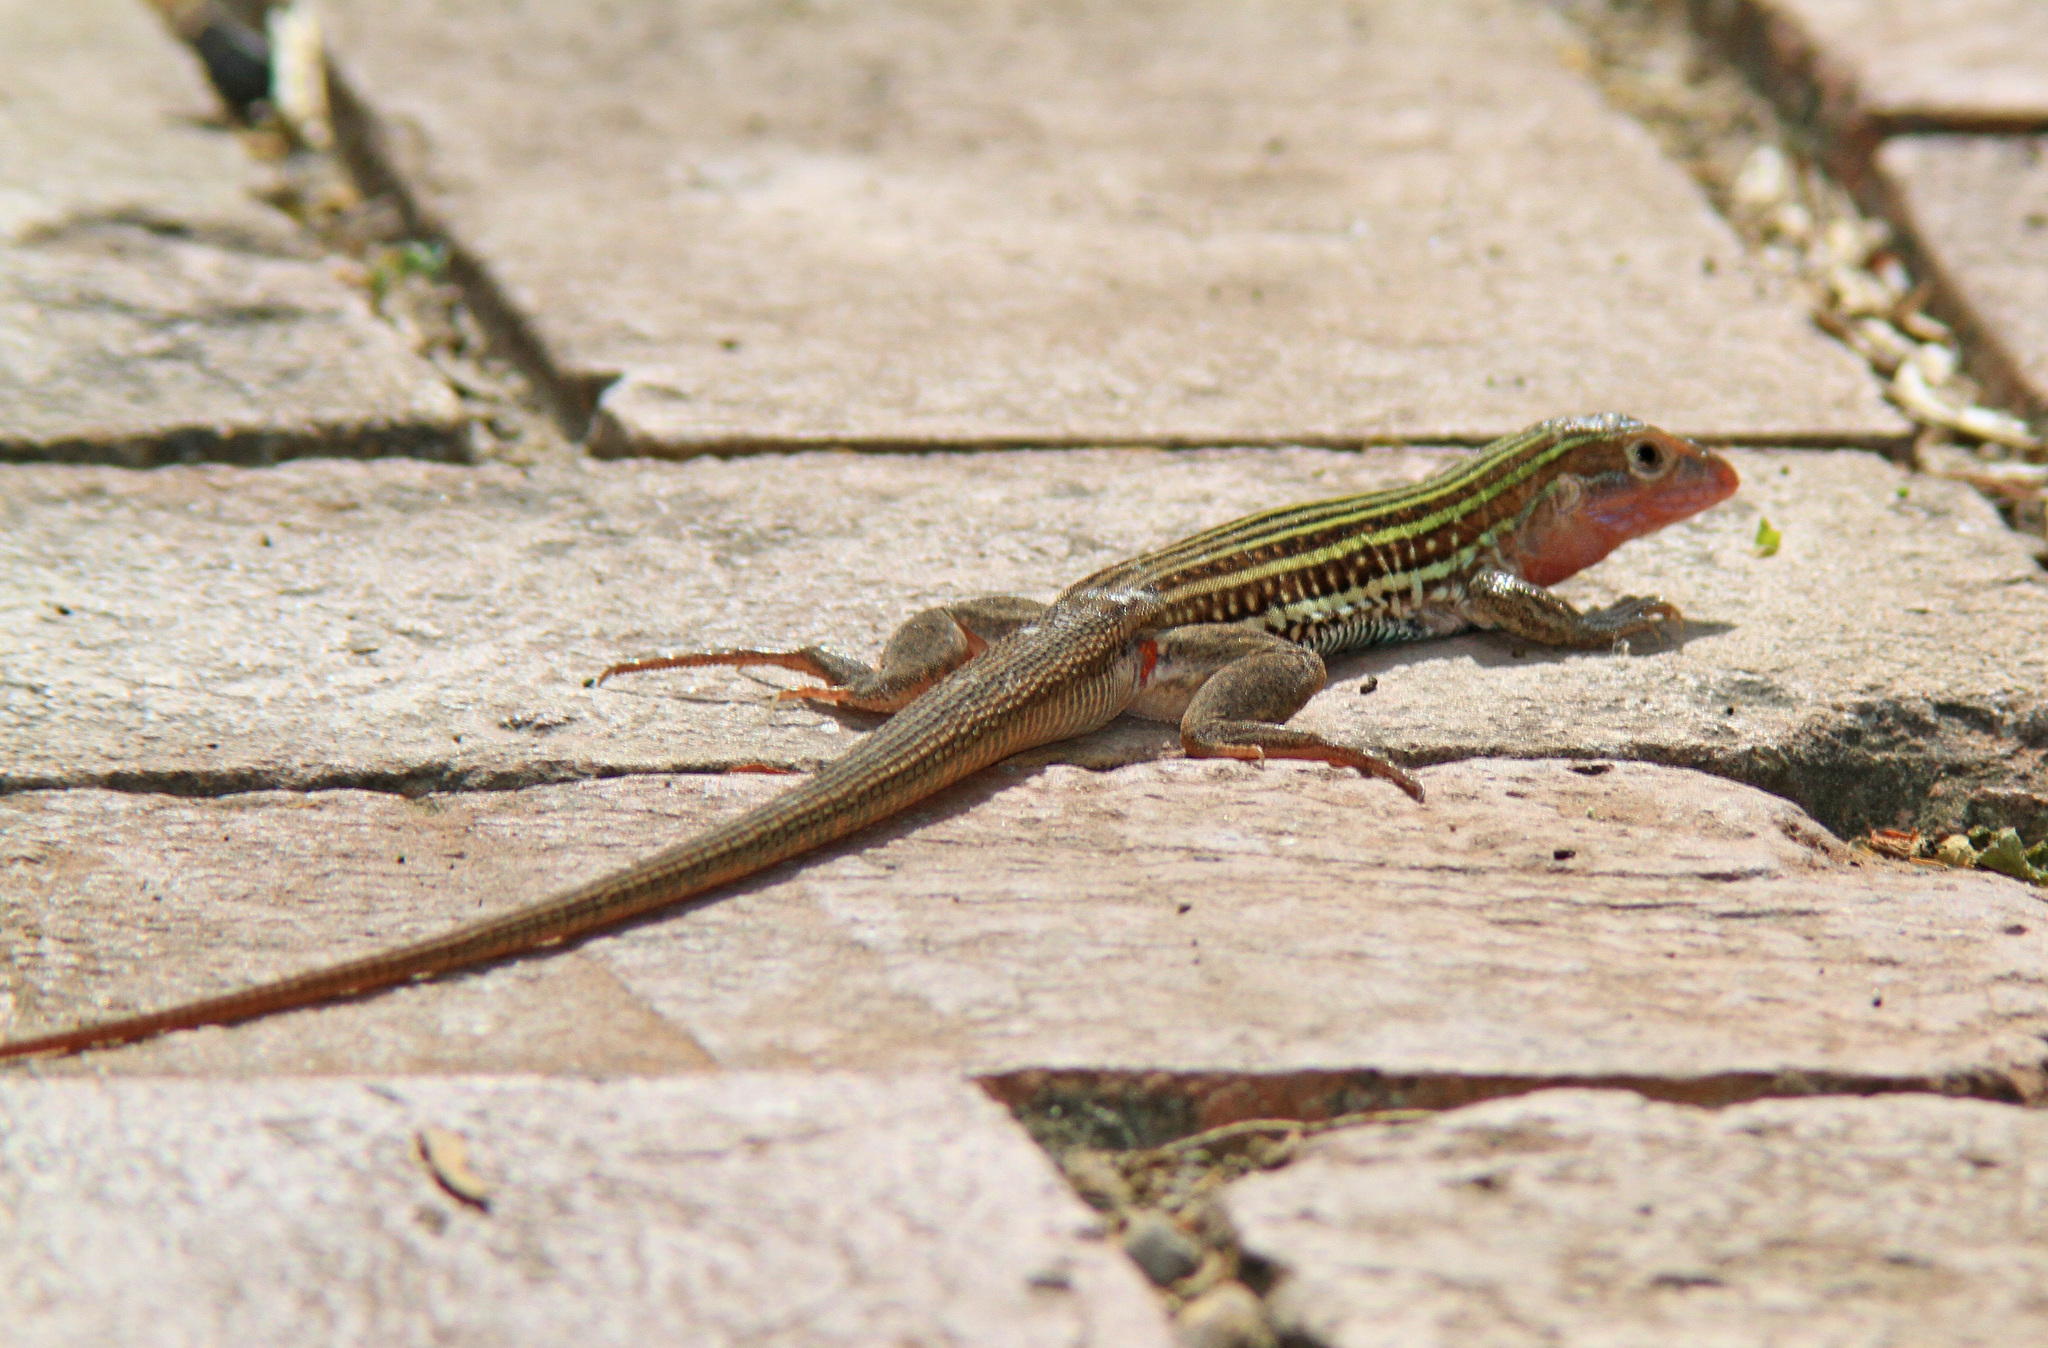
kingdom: Animalia
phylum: Chordata
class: Squamata
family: Teiidae
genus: Aspidoscelis
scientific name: Aspidoscelis gularis
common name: Eastern spotted whiptail
